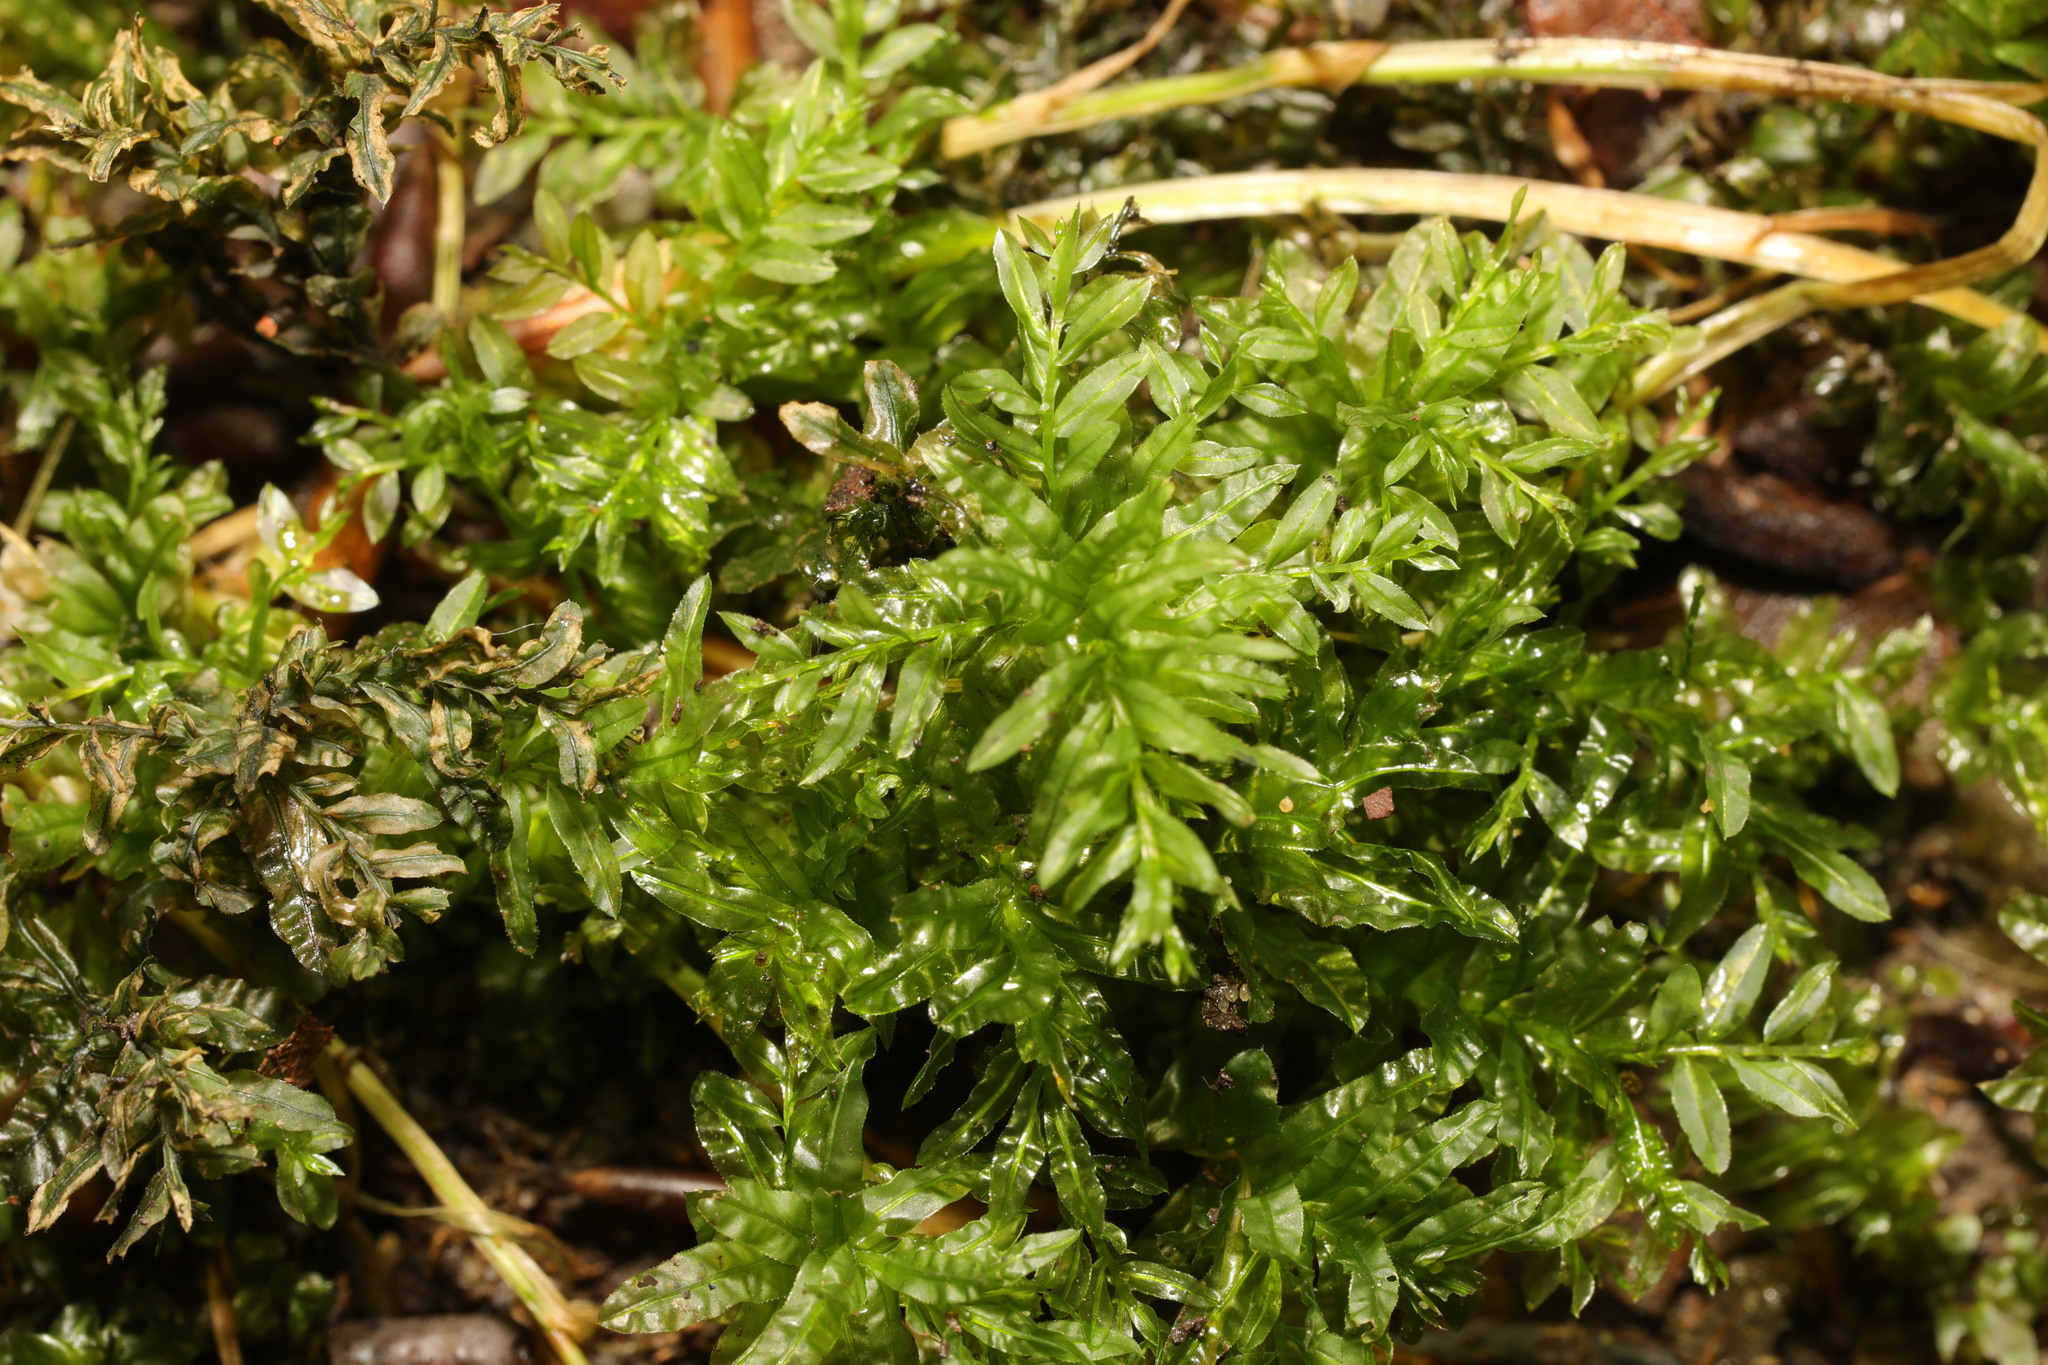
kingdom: Plantae
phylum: Bryophyta
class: Bryopsida
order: Bryales
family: Mniaceae
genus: Plagiomnium
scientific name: Plagiomnium undulatum
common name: Hart's-tongue thyme-moss
